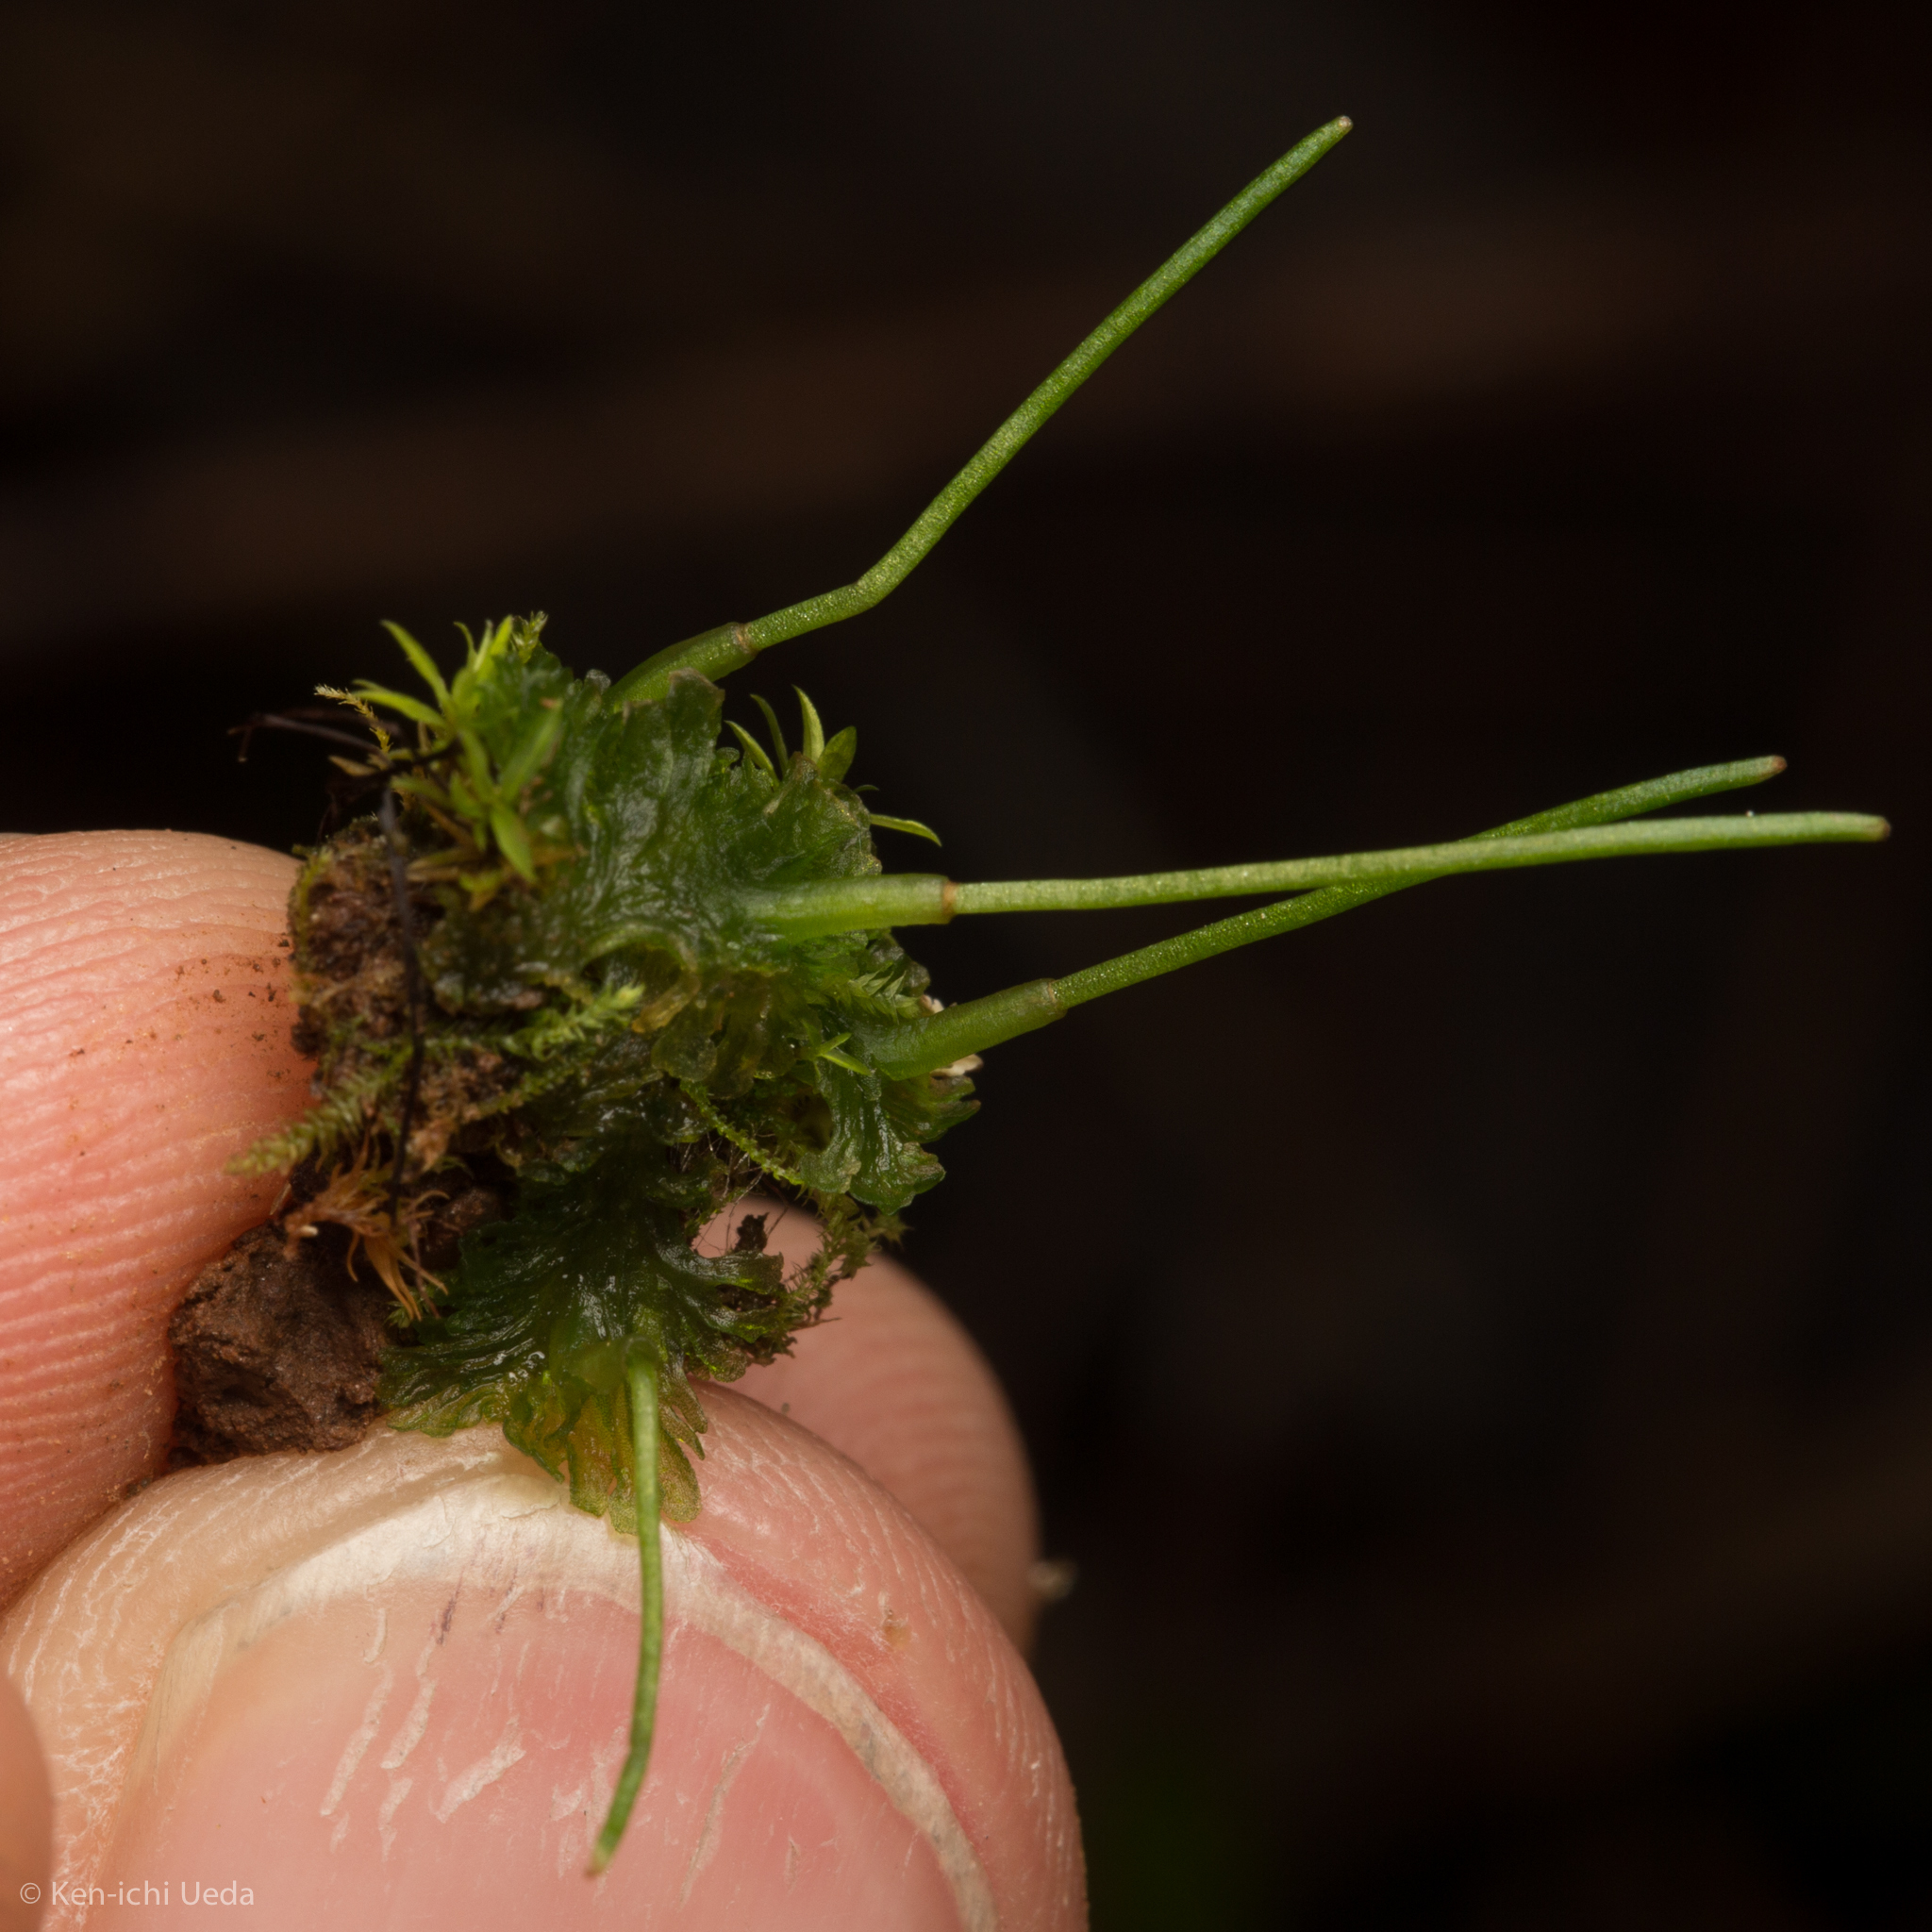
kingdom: Plantae
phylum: Anthocerotophyta
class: Anthocerotopsida
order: Anthocerotales
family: Anthocerotaceae
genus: Anthoceros
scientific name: Anthoceros fusiformis
